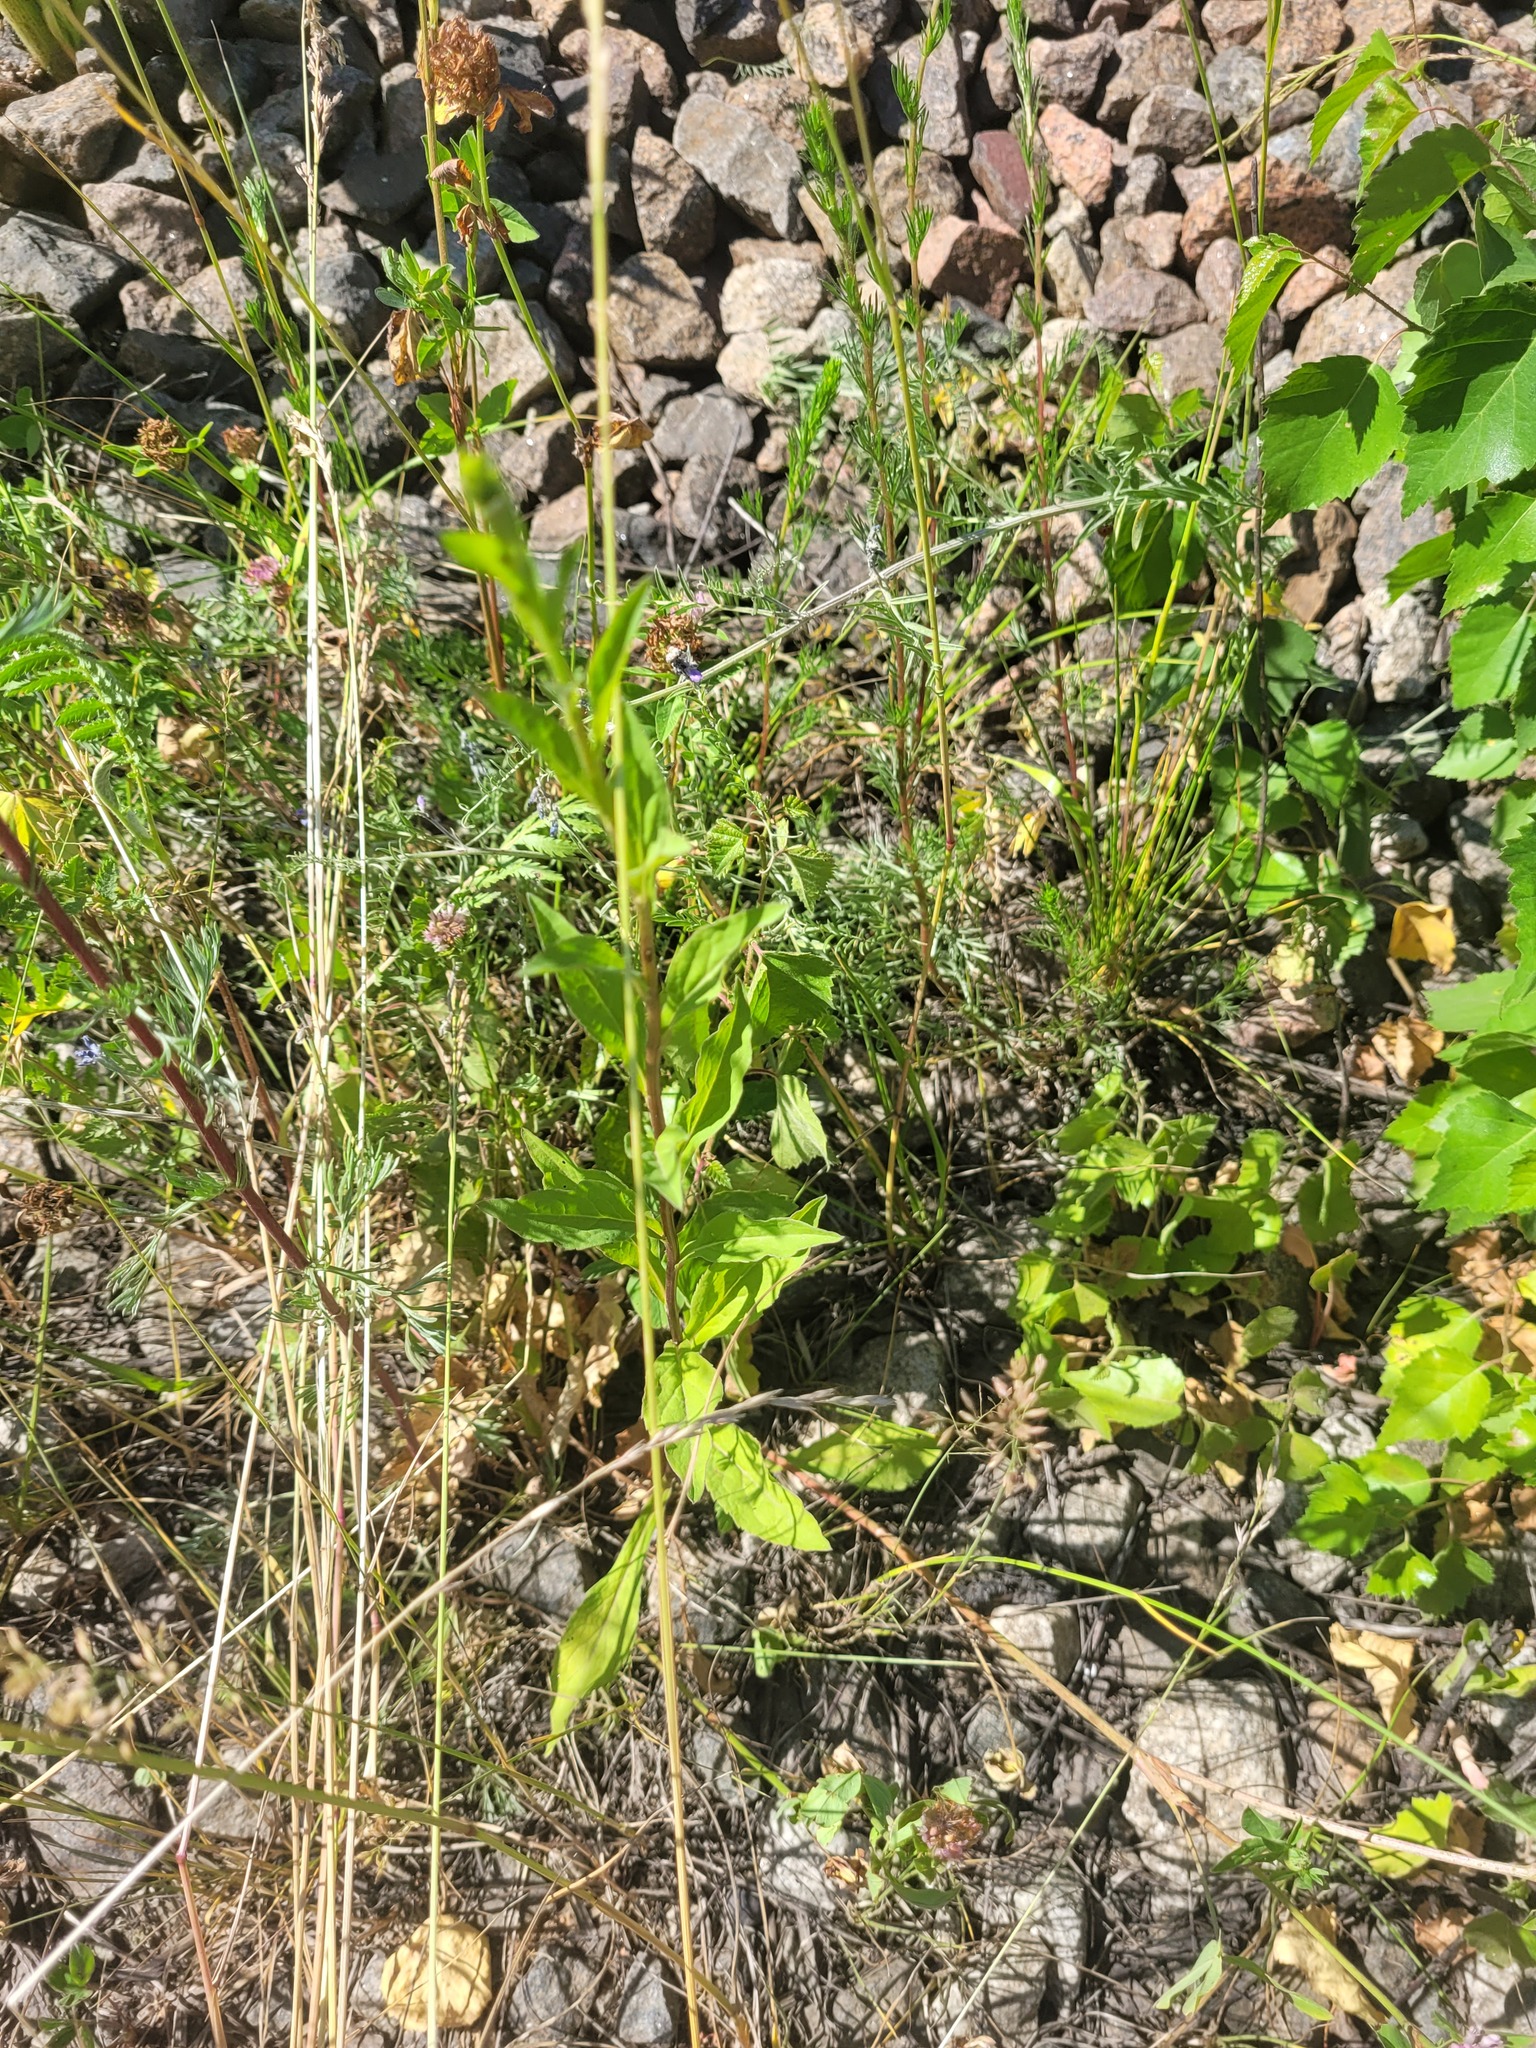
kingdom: Plantae
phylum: Tracheophyta
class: Magnoliopsida
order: Asterales
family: Asteraceae
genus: Solidago
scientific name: Solidago virgaurea
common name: Goldenrod
